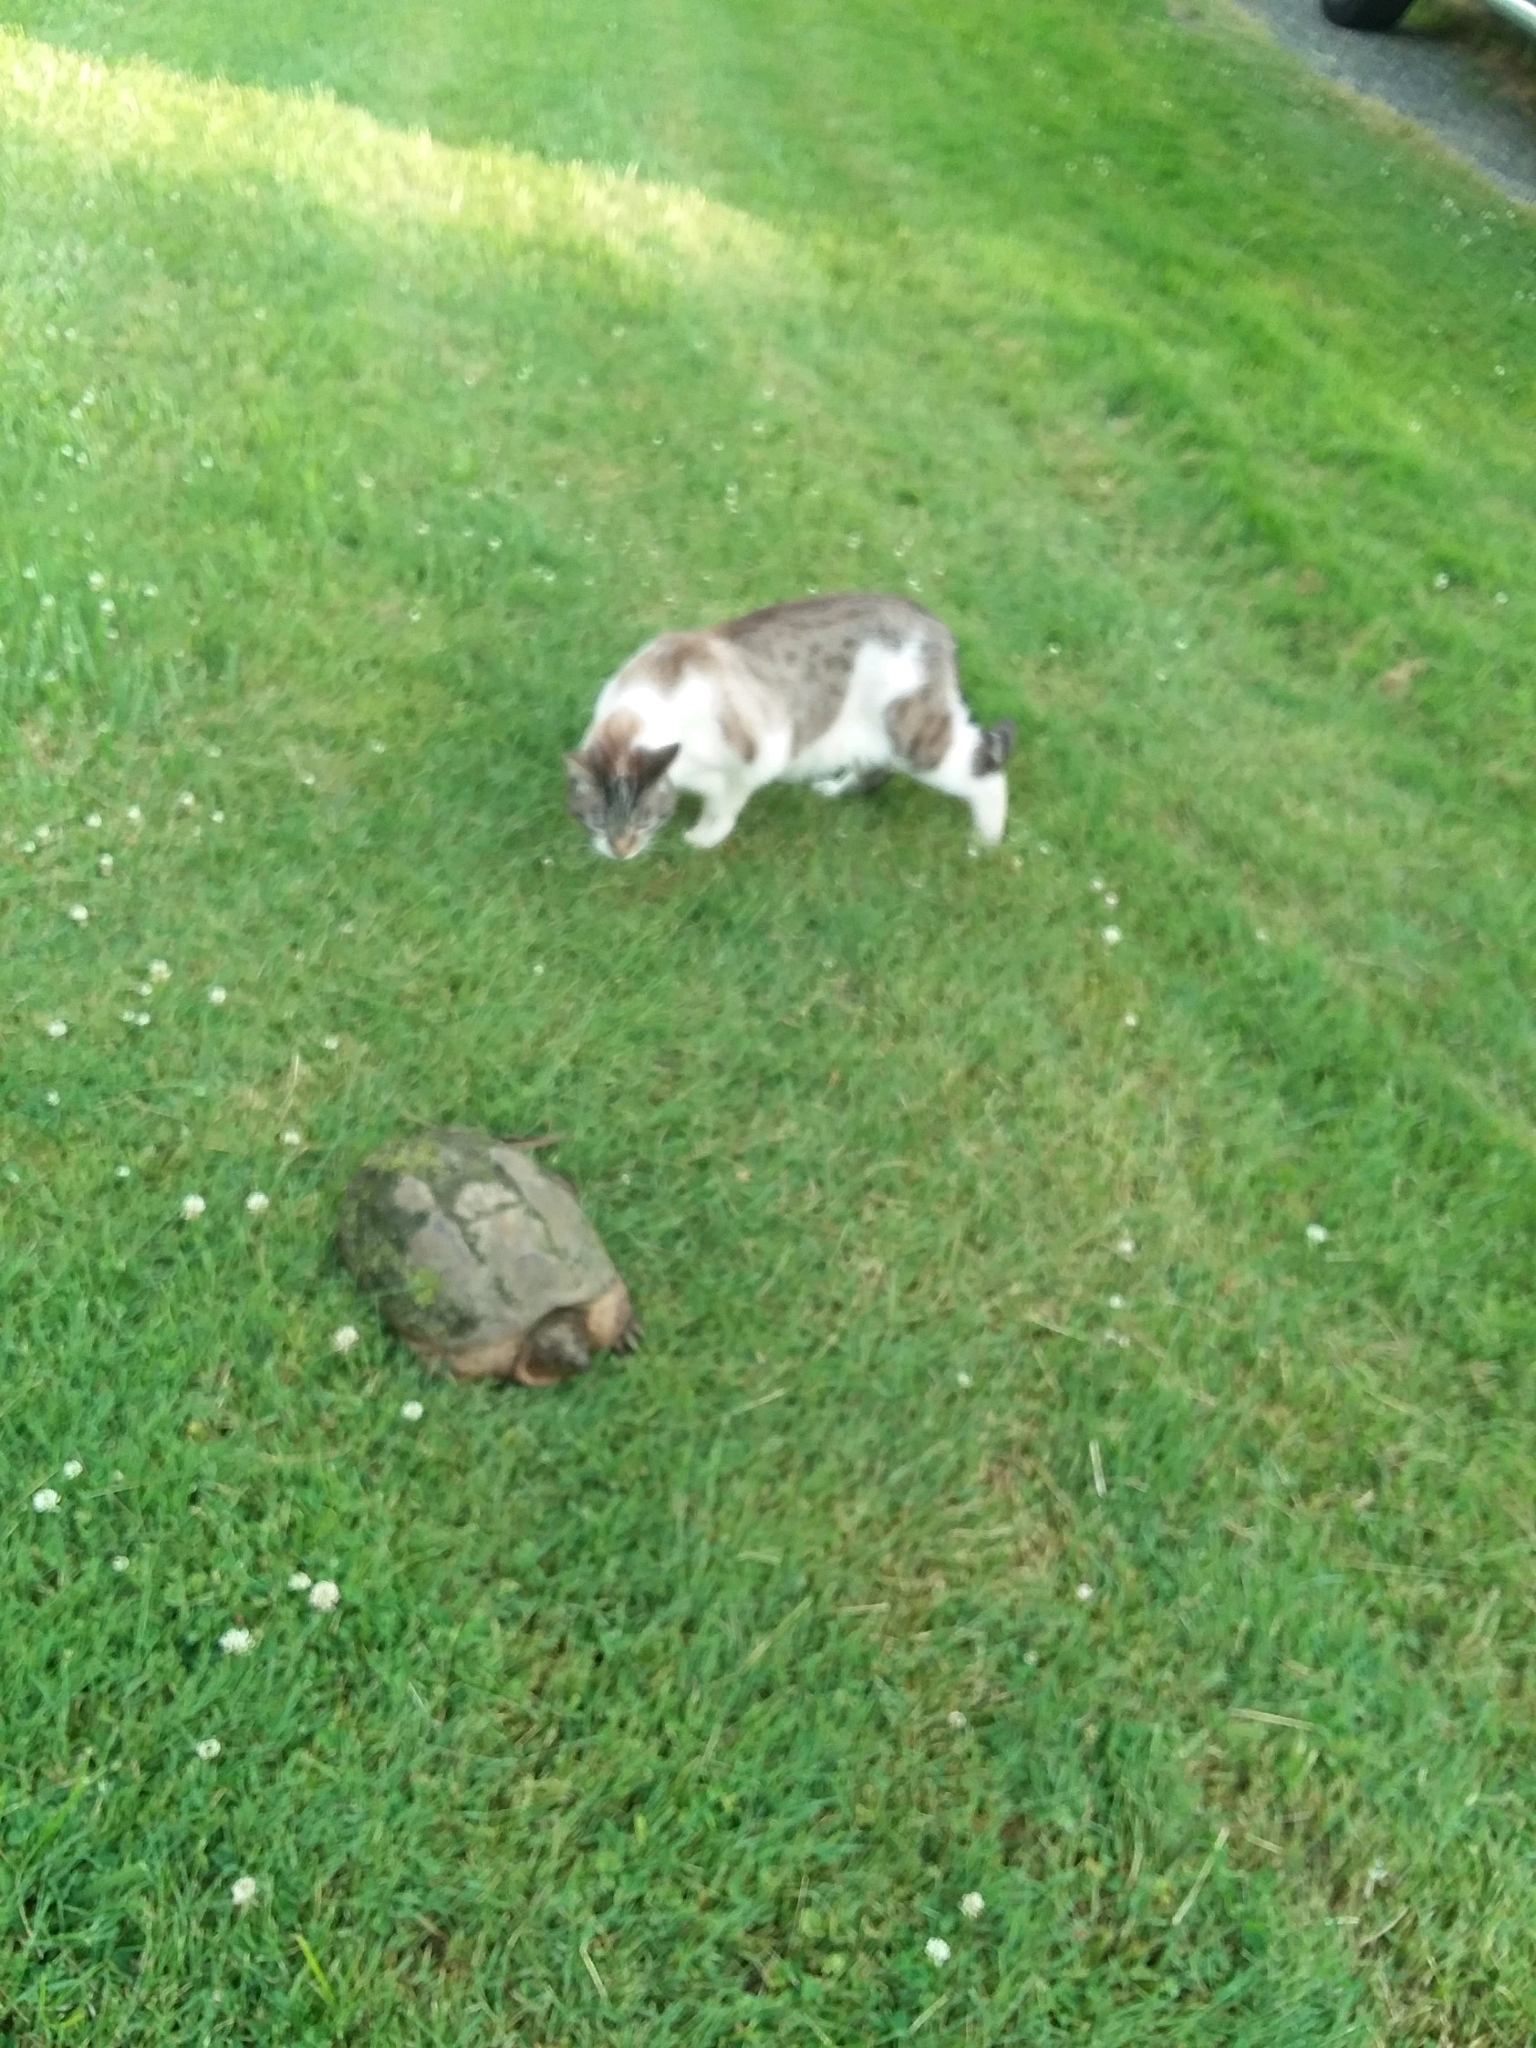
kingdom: Animalia
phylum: Chordata
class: Testudines
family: Chelydridae
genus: Chelydra
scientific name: Chelydra serpentina
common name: Common snapping turtle
